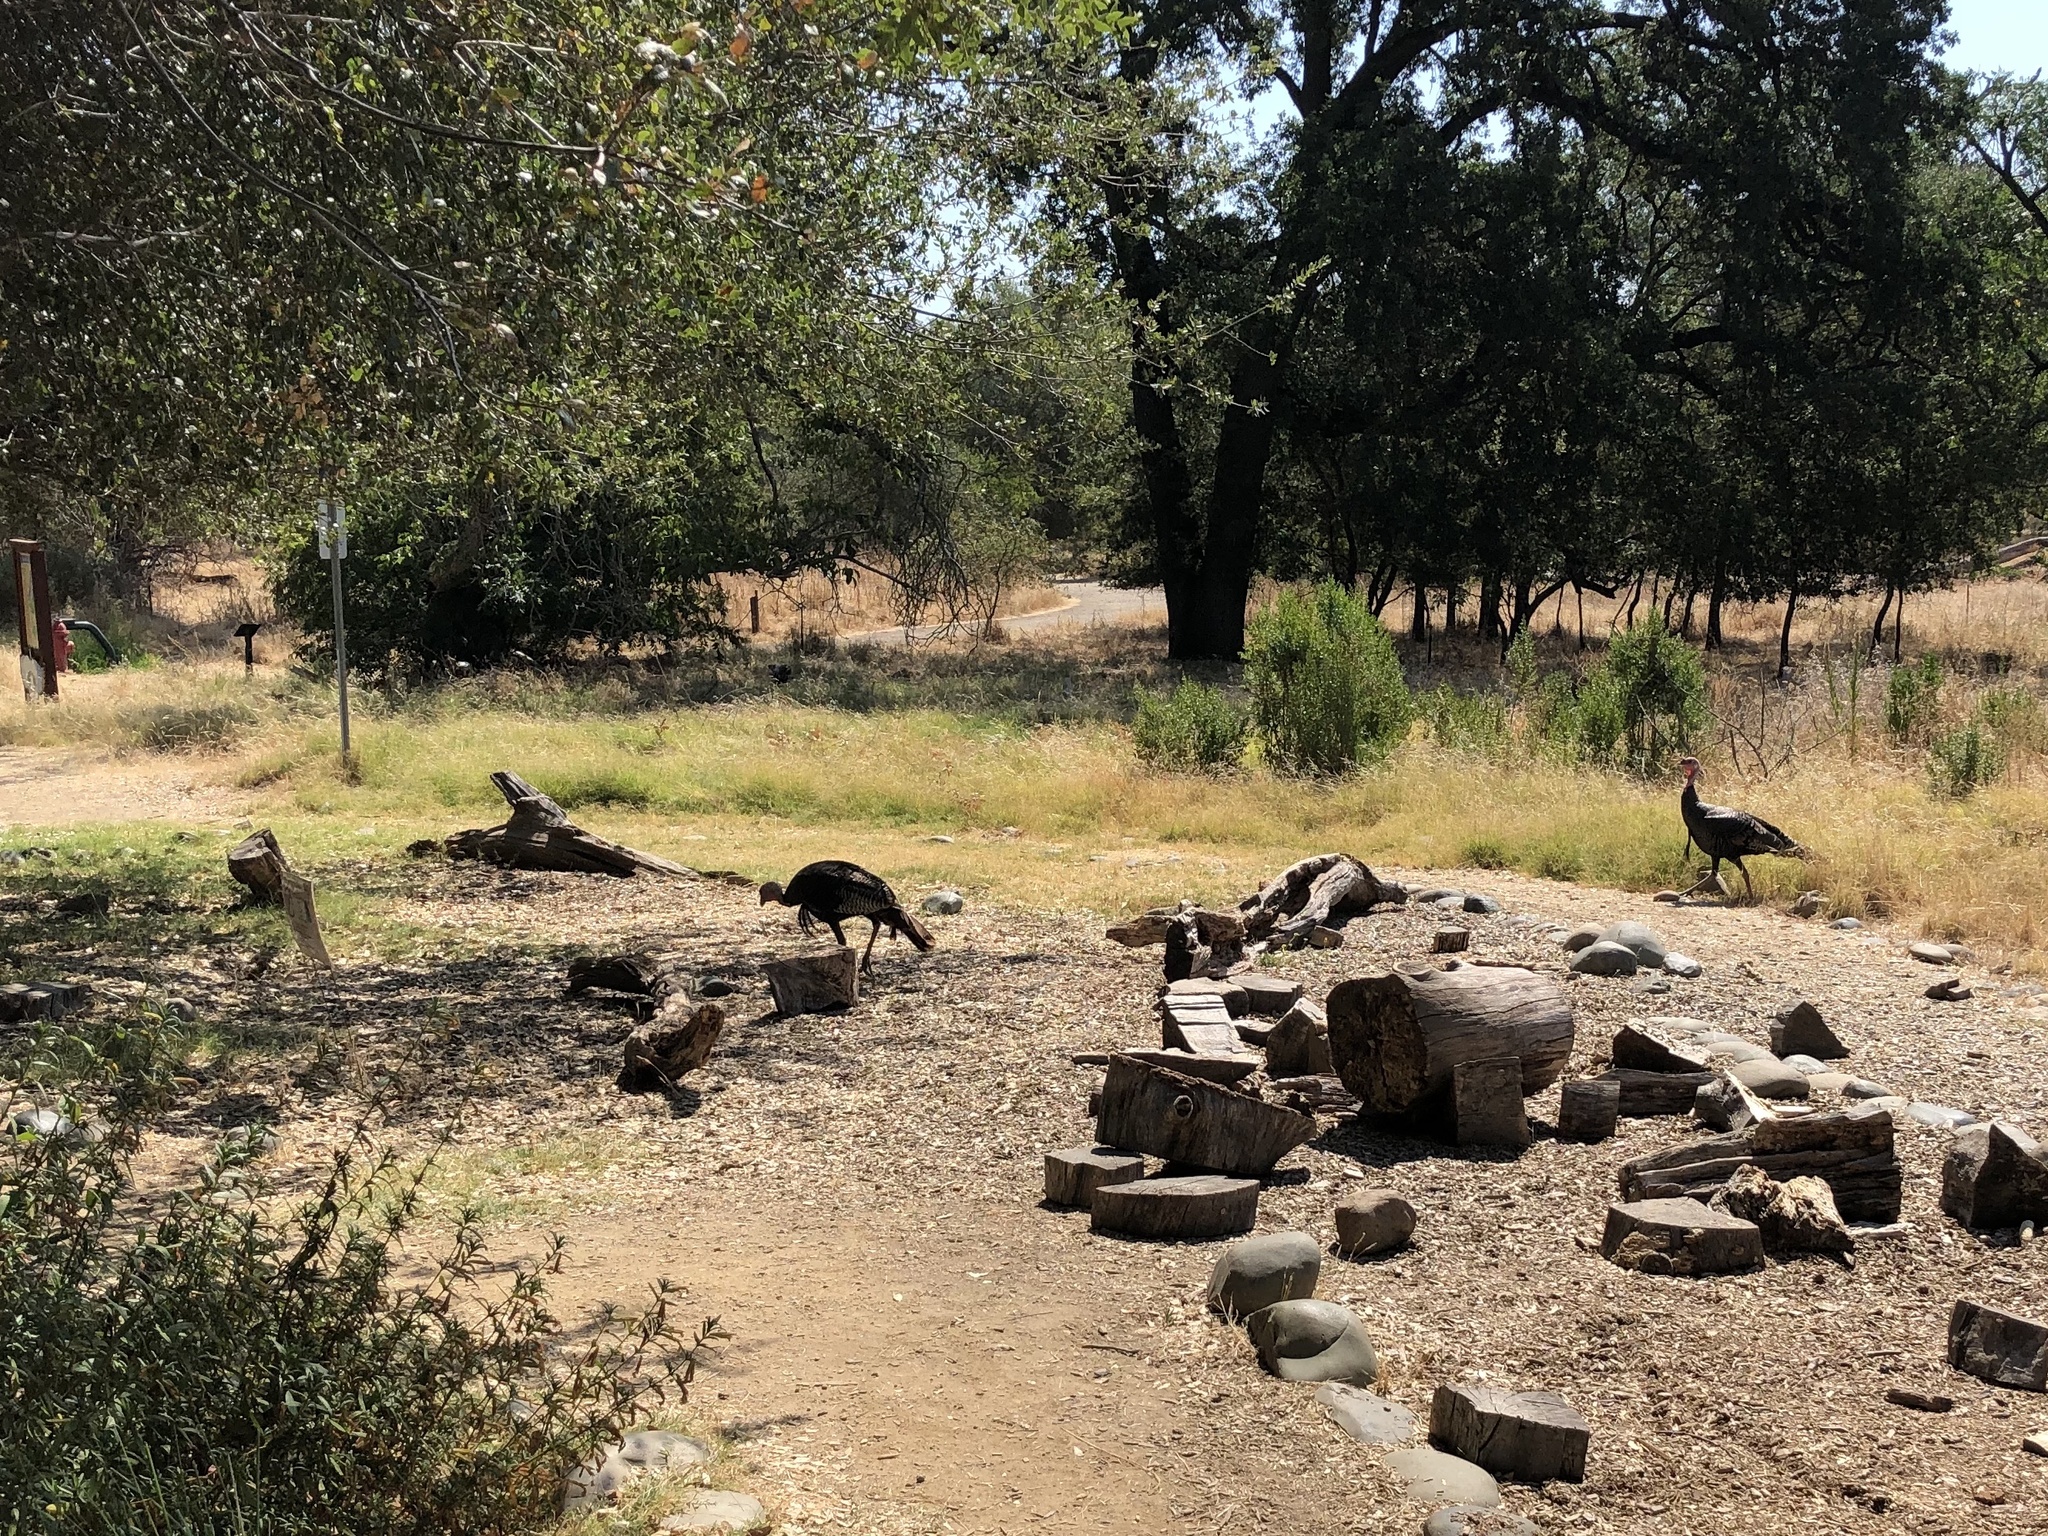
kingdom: Animalia
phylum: Chordata
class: Aves
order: Galliformes
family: Phasianidae
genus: Meleagris
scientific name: Meleagris gallopavo
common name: Wild turkey
